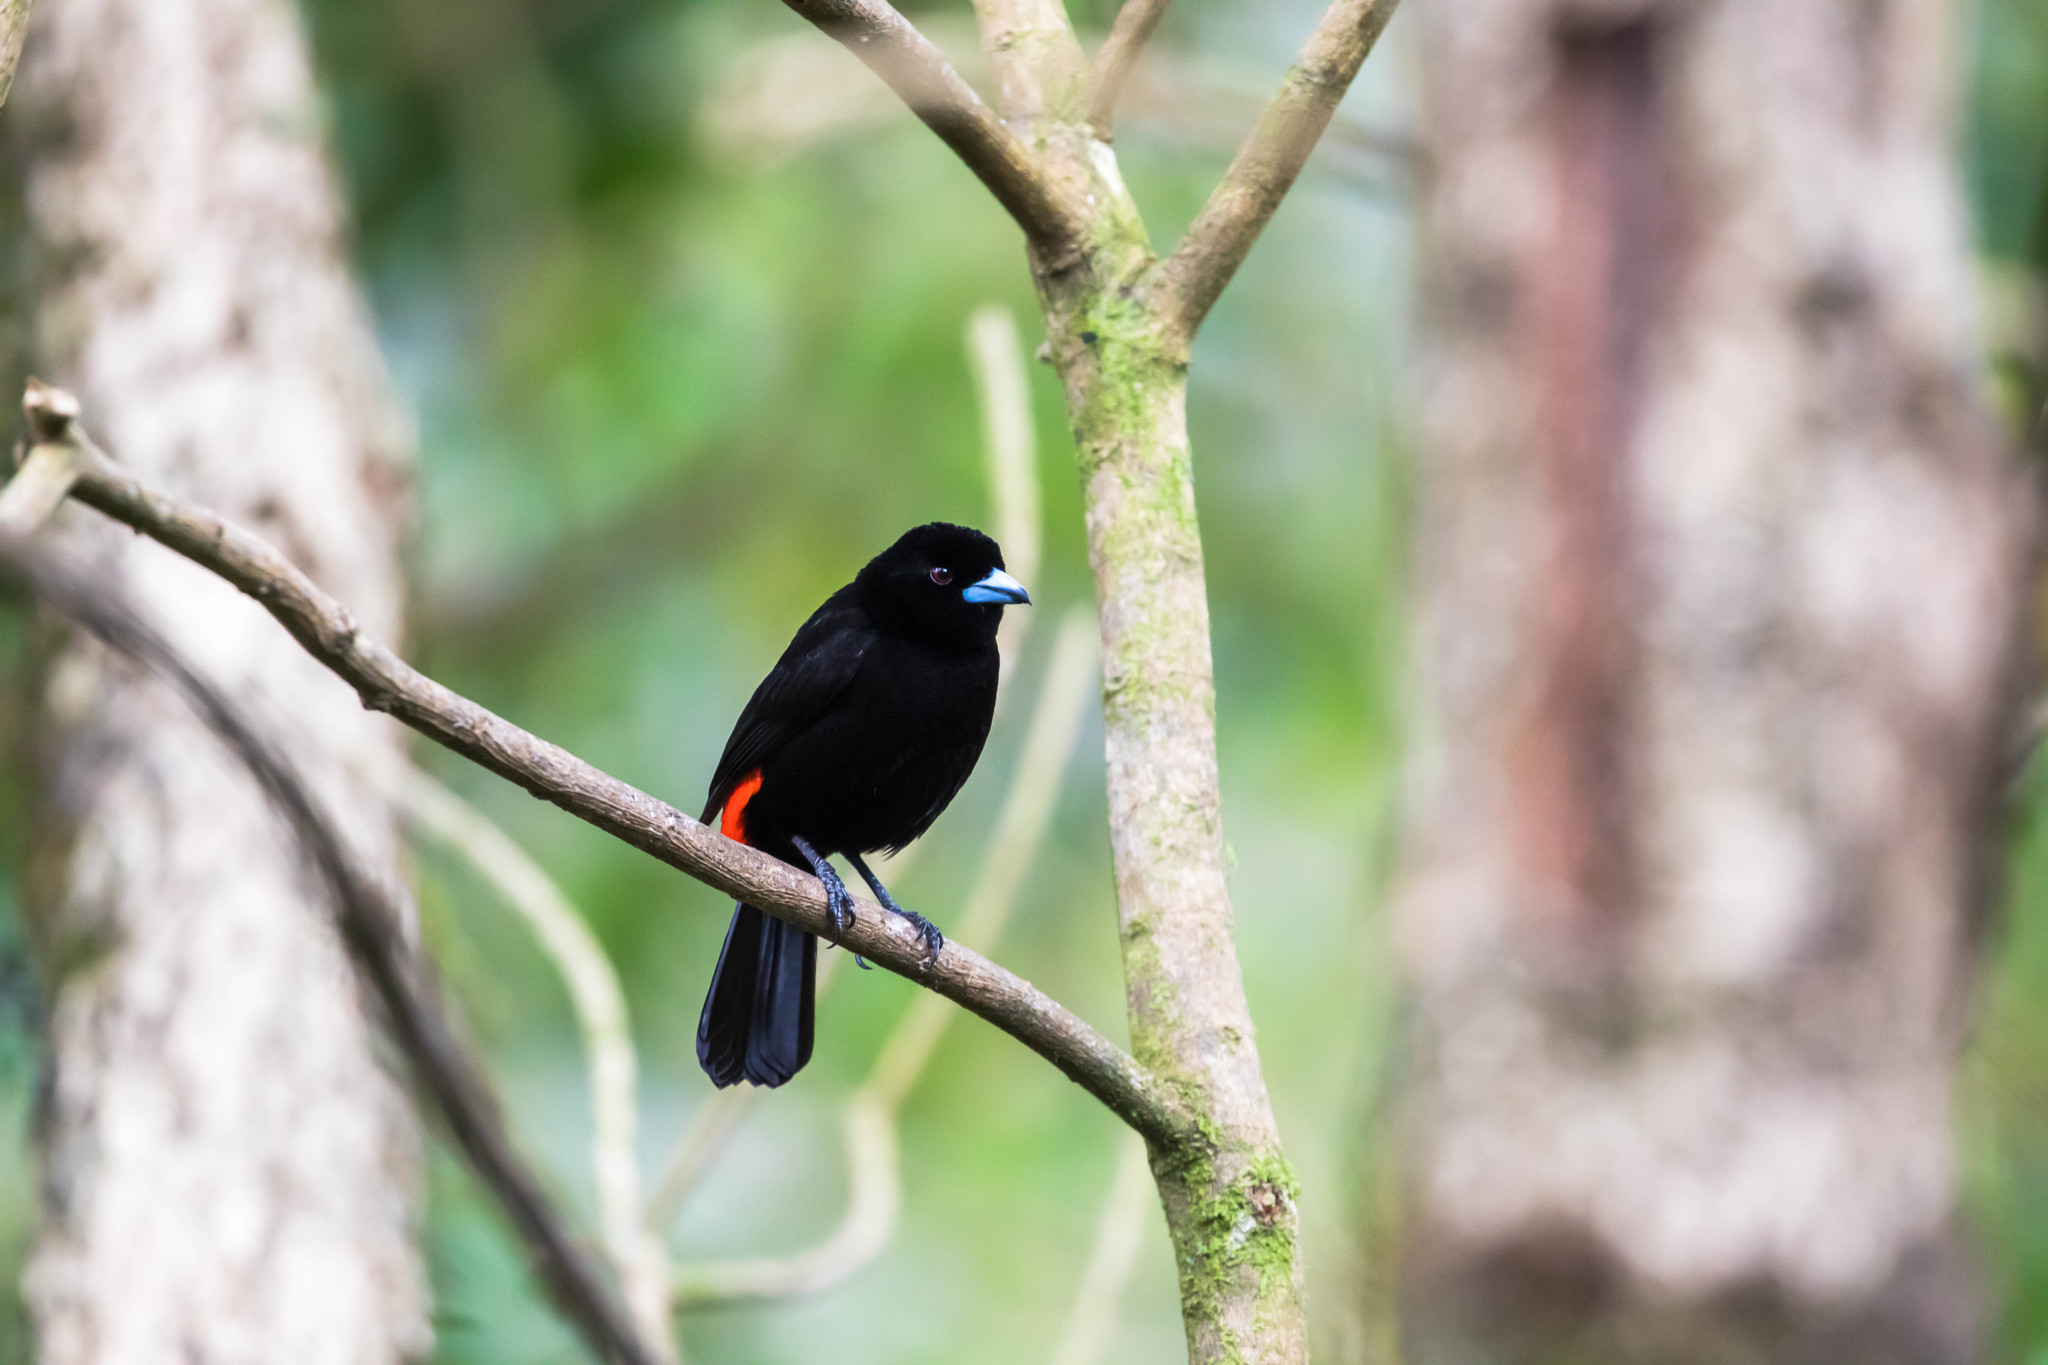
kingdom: Animalia
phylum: Chordata
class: Aves
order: Passeriformes
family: Thraupidae
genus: Ramphocelus
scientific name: Ramphocelus passerinii
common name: Passerini's tanager
